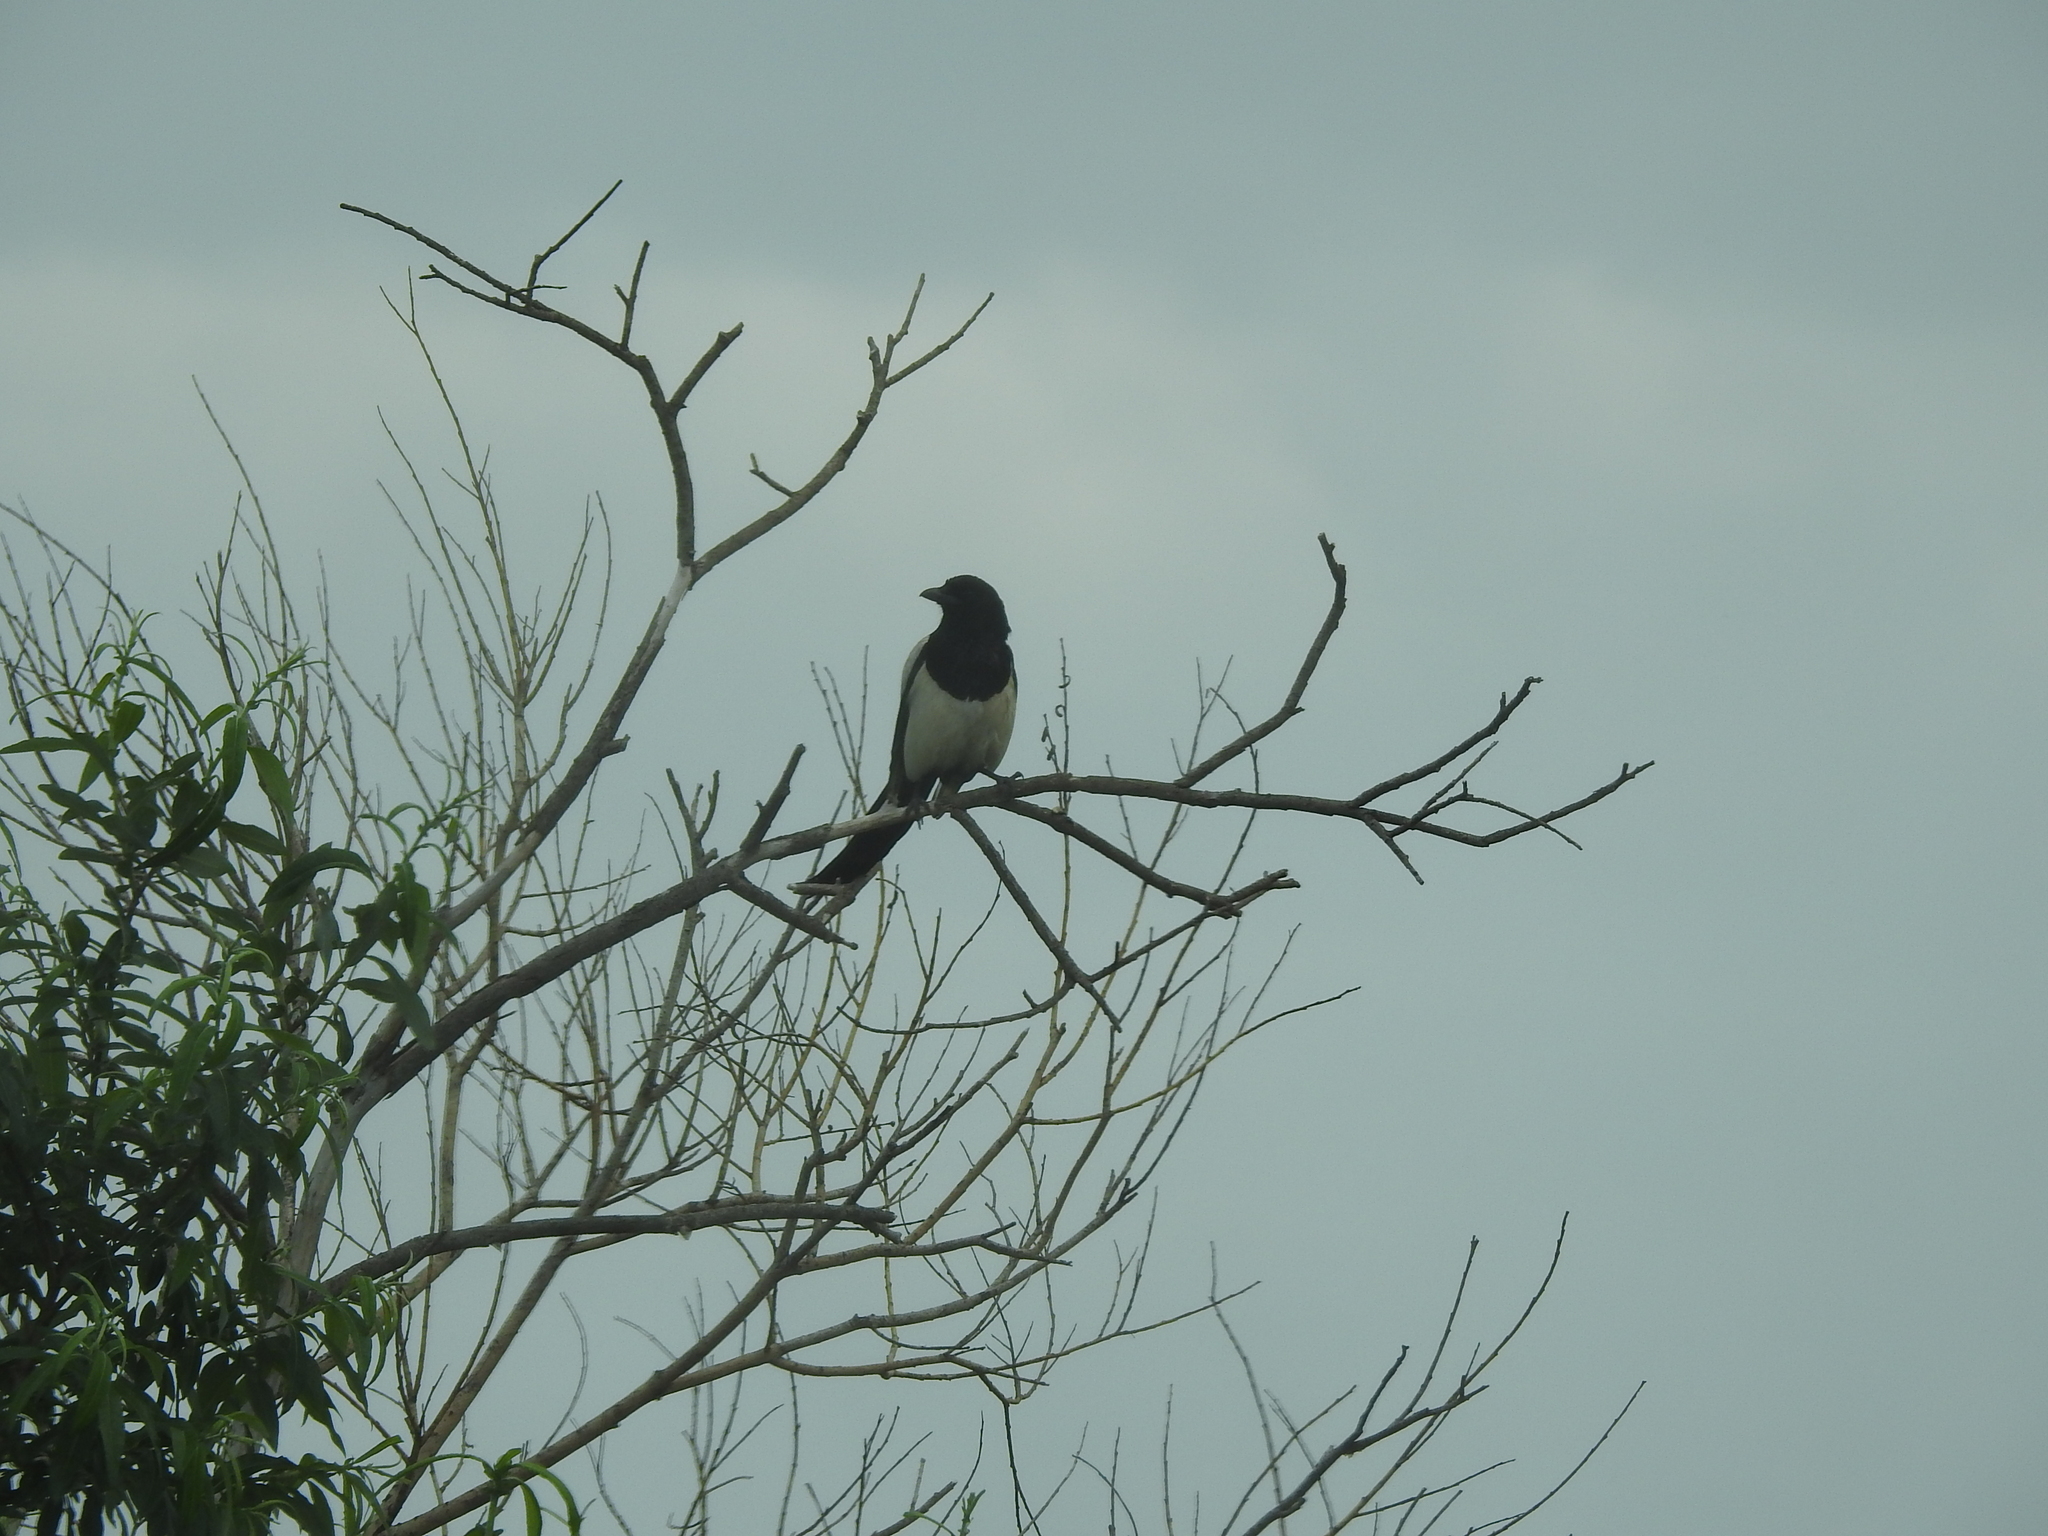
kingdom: Animalia
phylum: Chordata
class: Aves
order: Passeriformes
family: Corvidae
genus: Pica
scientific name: Pica pica
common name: Eurasian magpie
